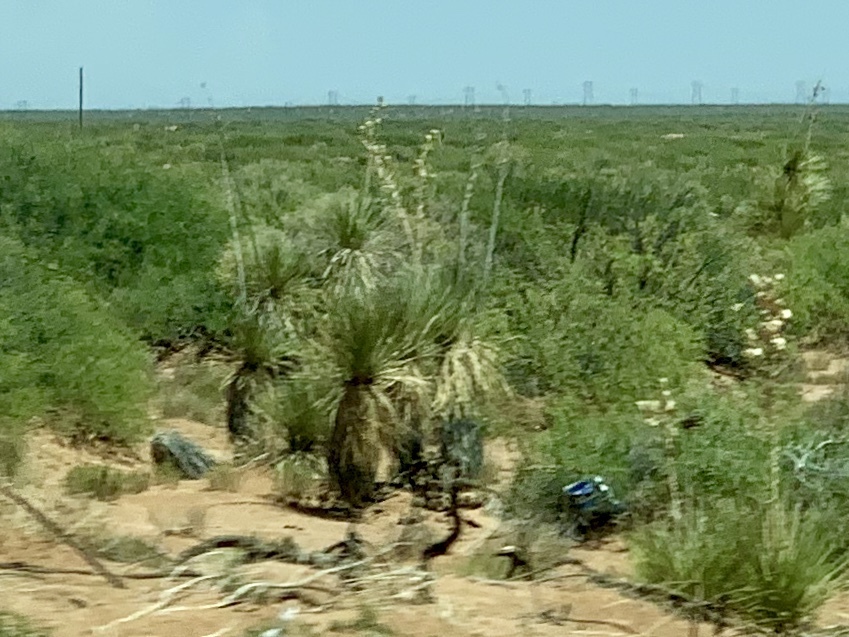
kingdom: Plantae
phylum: Tracheophyta
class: Liliopsida
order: Asparagales
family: Asparagaceae
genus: Yucca
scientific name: Yucca elata
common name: Palmella
